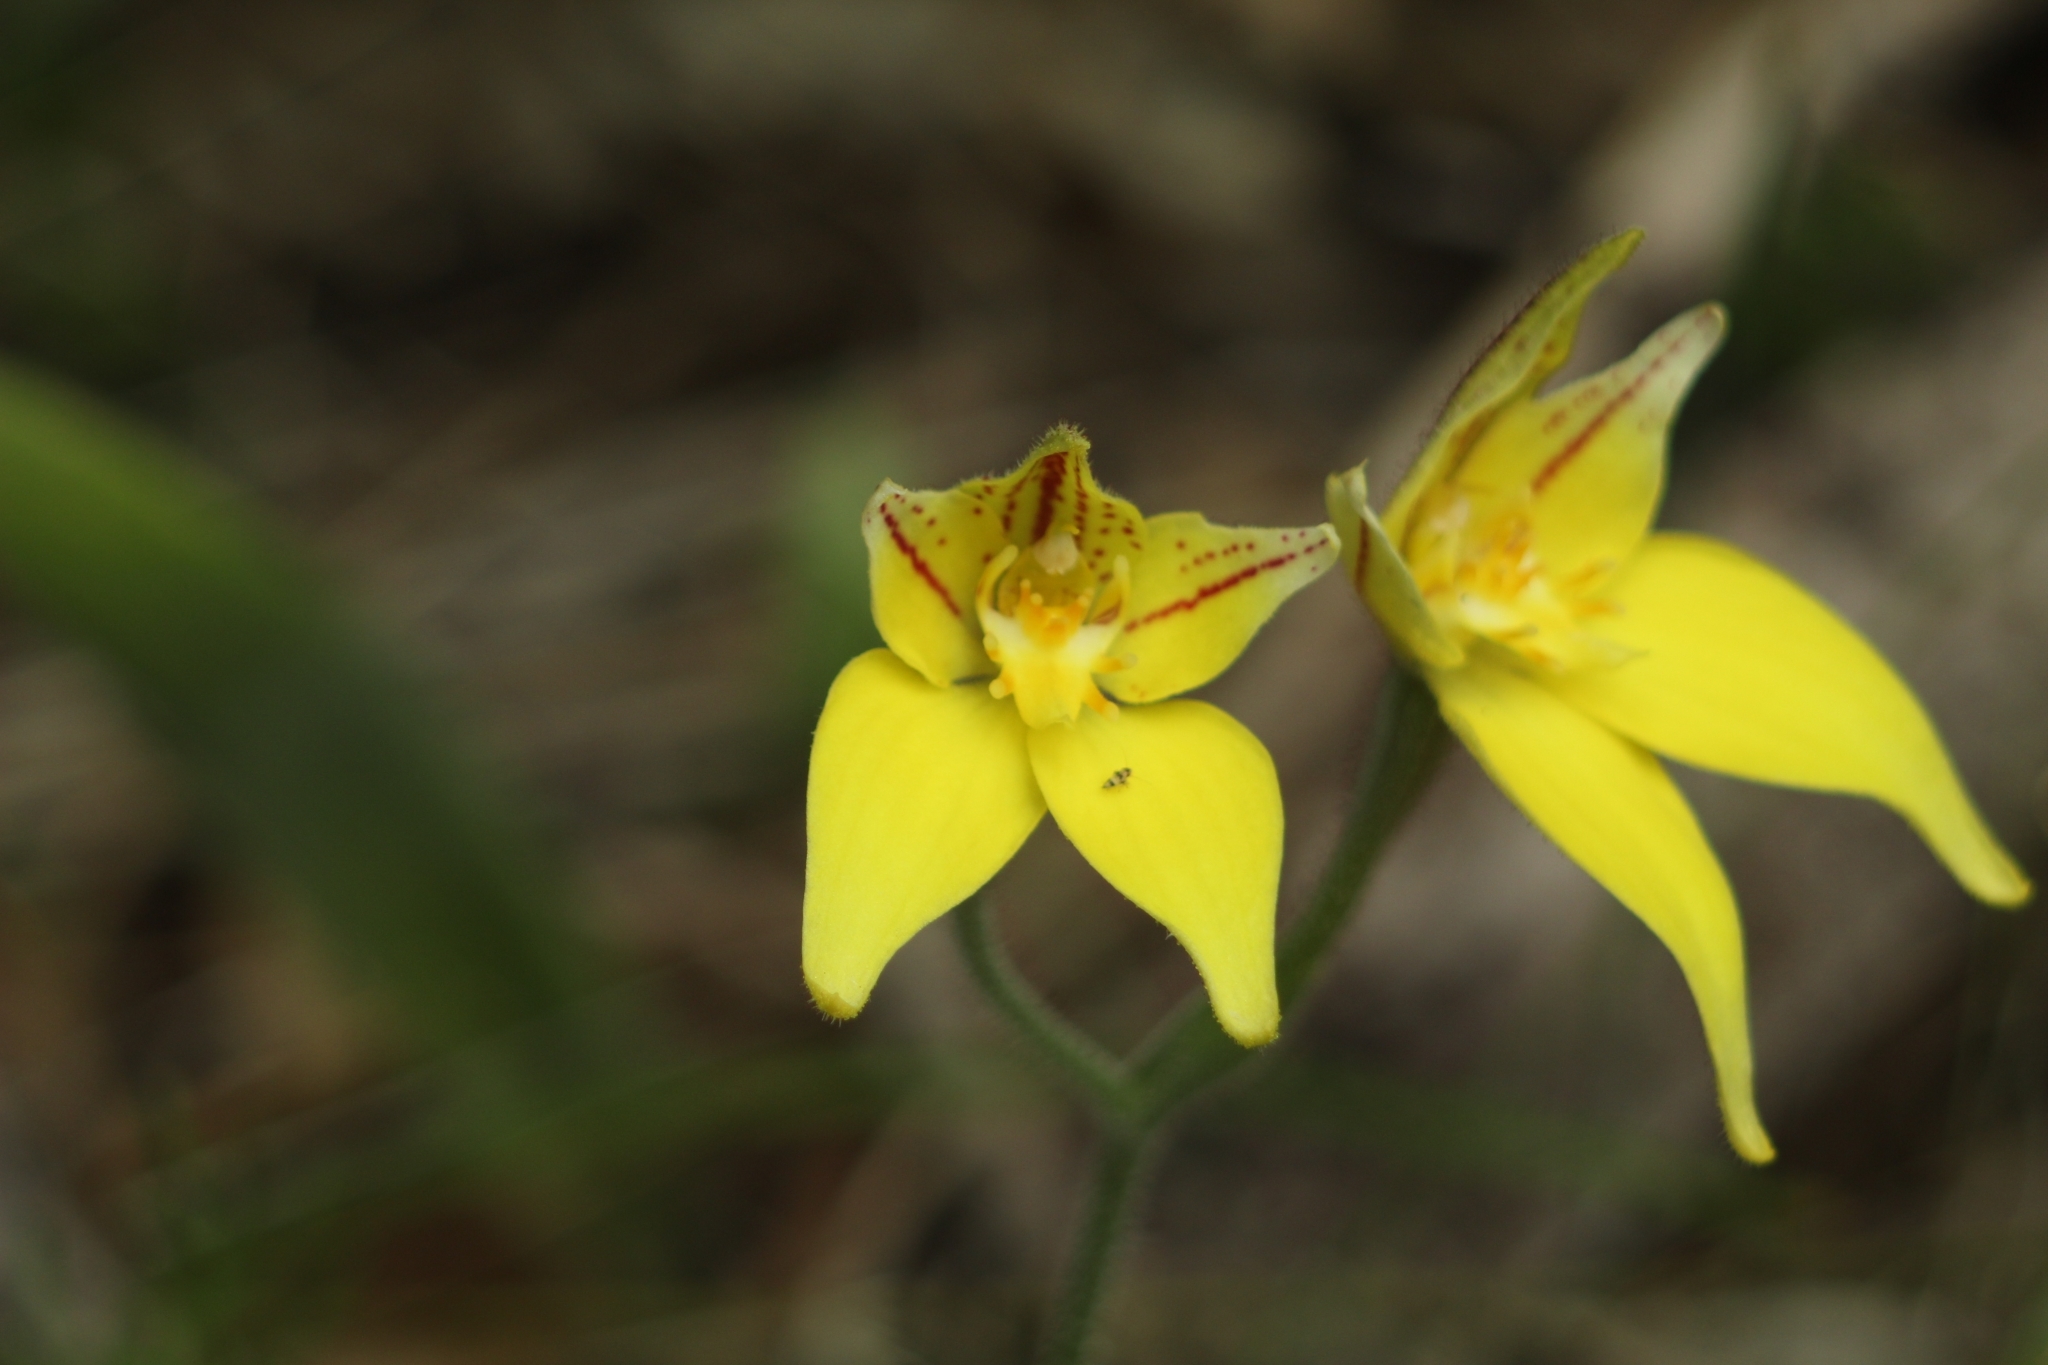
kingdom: Plantae
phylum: Tracheophyta
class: Liliopsida
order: Asparagales
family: Orchidaceae
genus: Caladenia
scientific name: Caladenia flava
